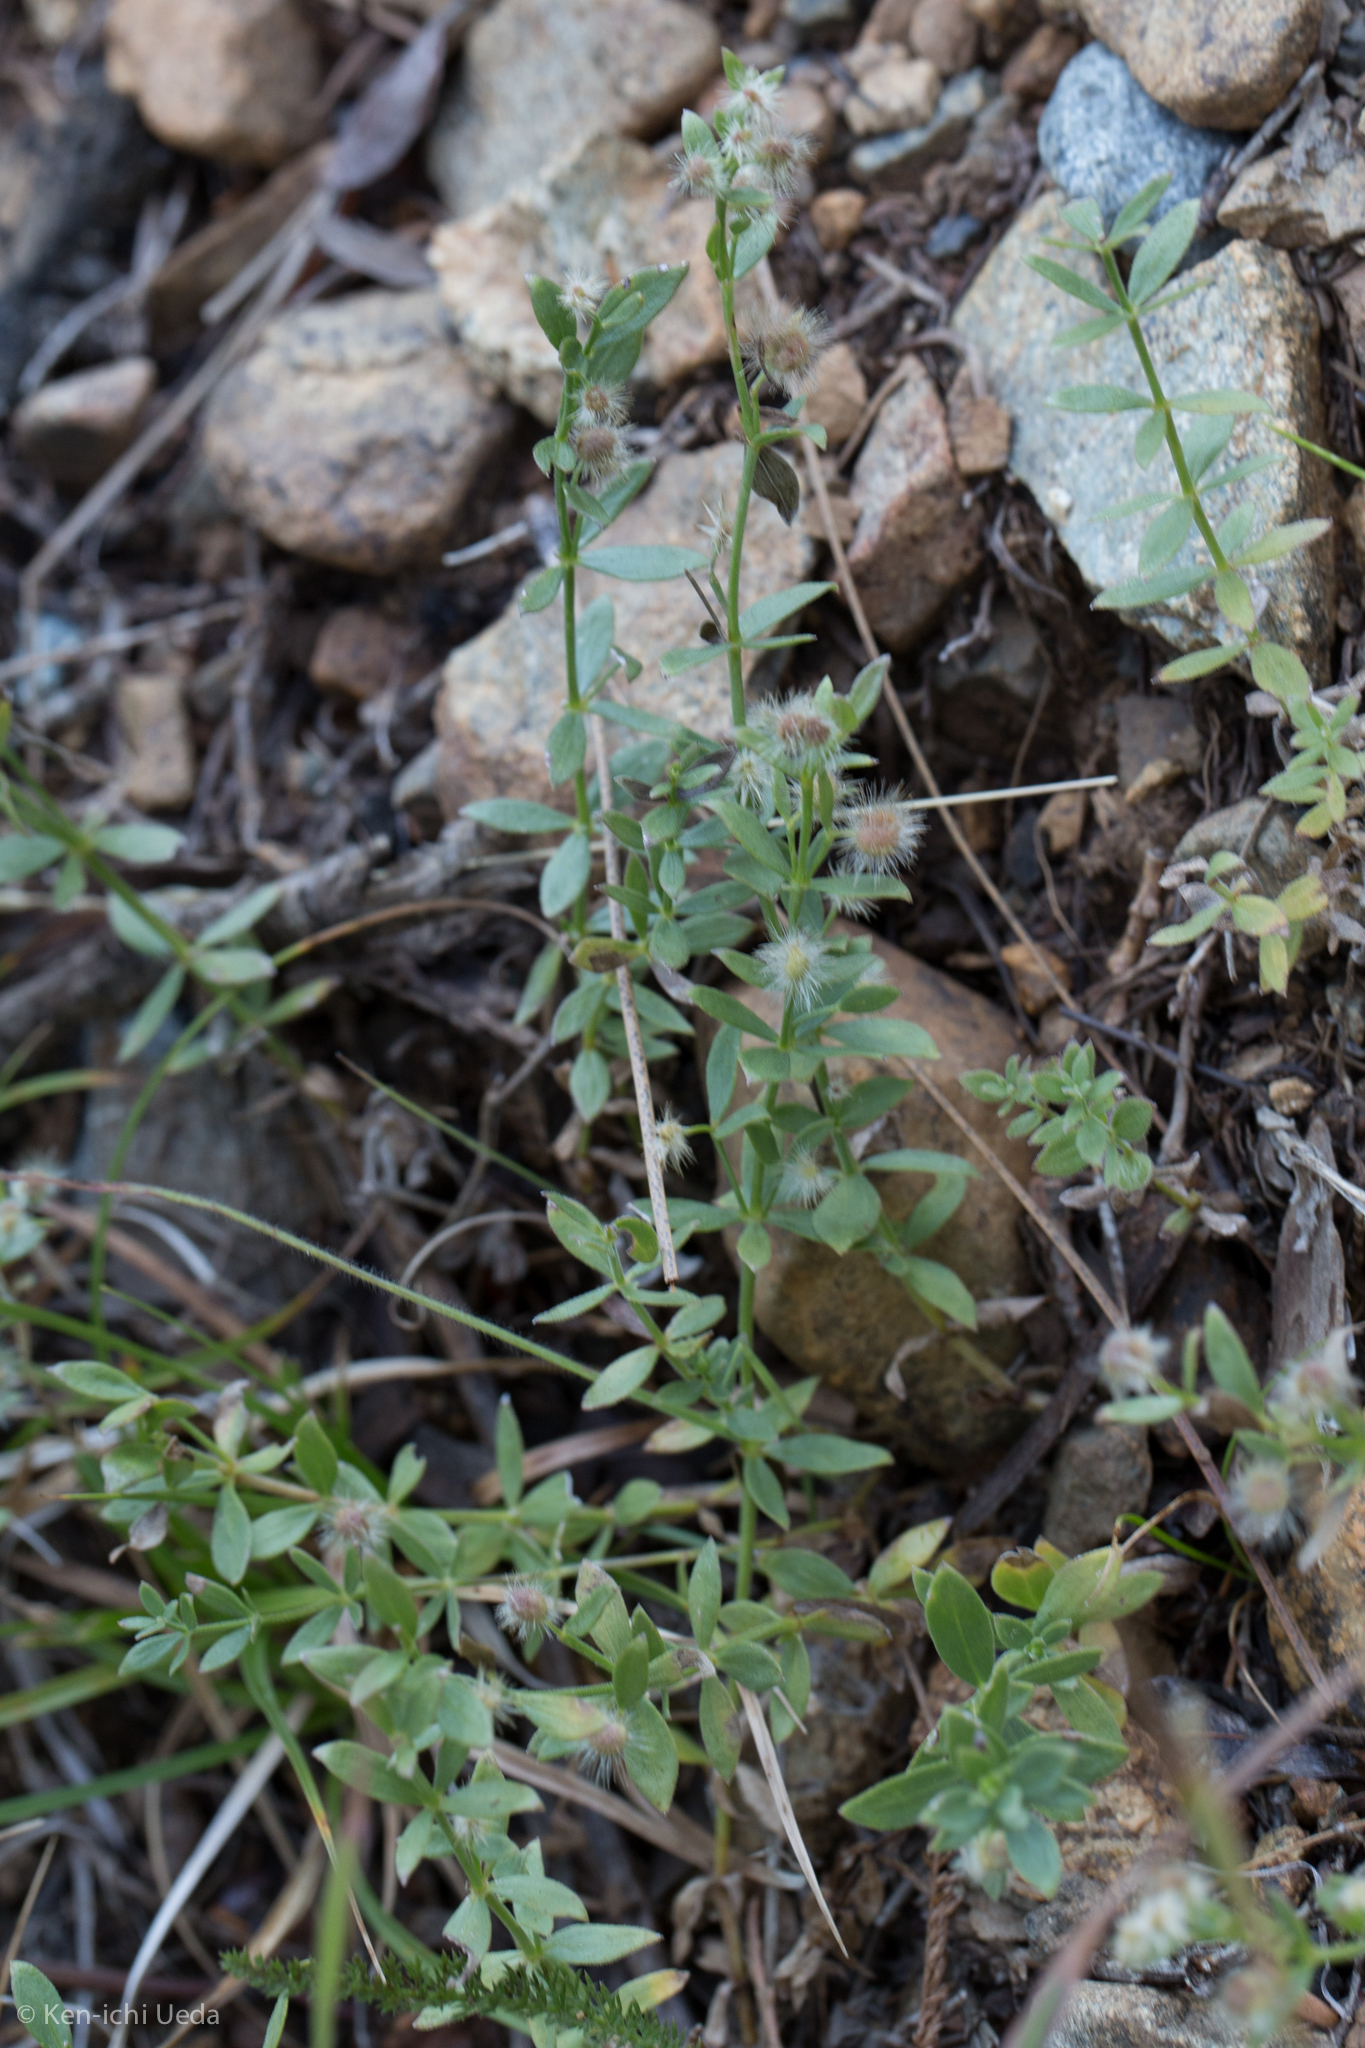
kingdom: Plantae
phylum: Tracheophyta
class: Magnoliopsida
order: Gentianales
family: Rubiaceae
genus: Galium
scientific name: Galium serpenticum
